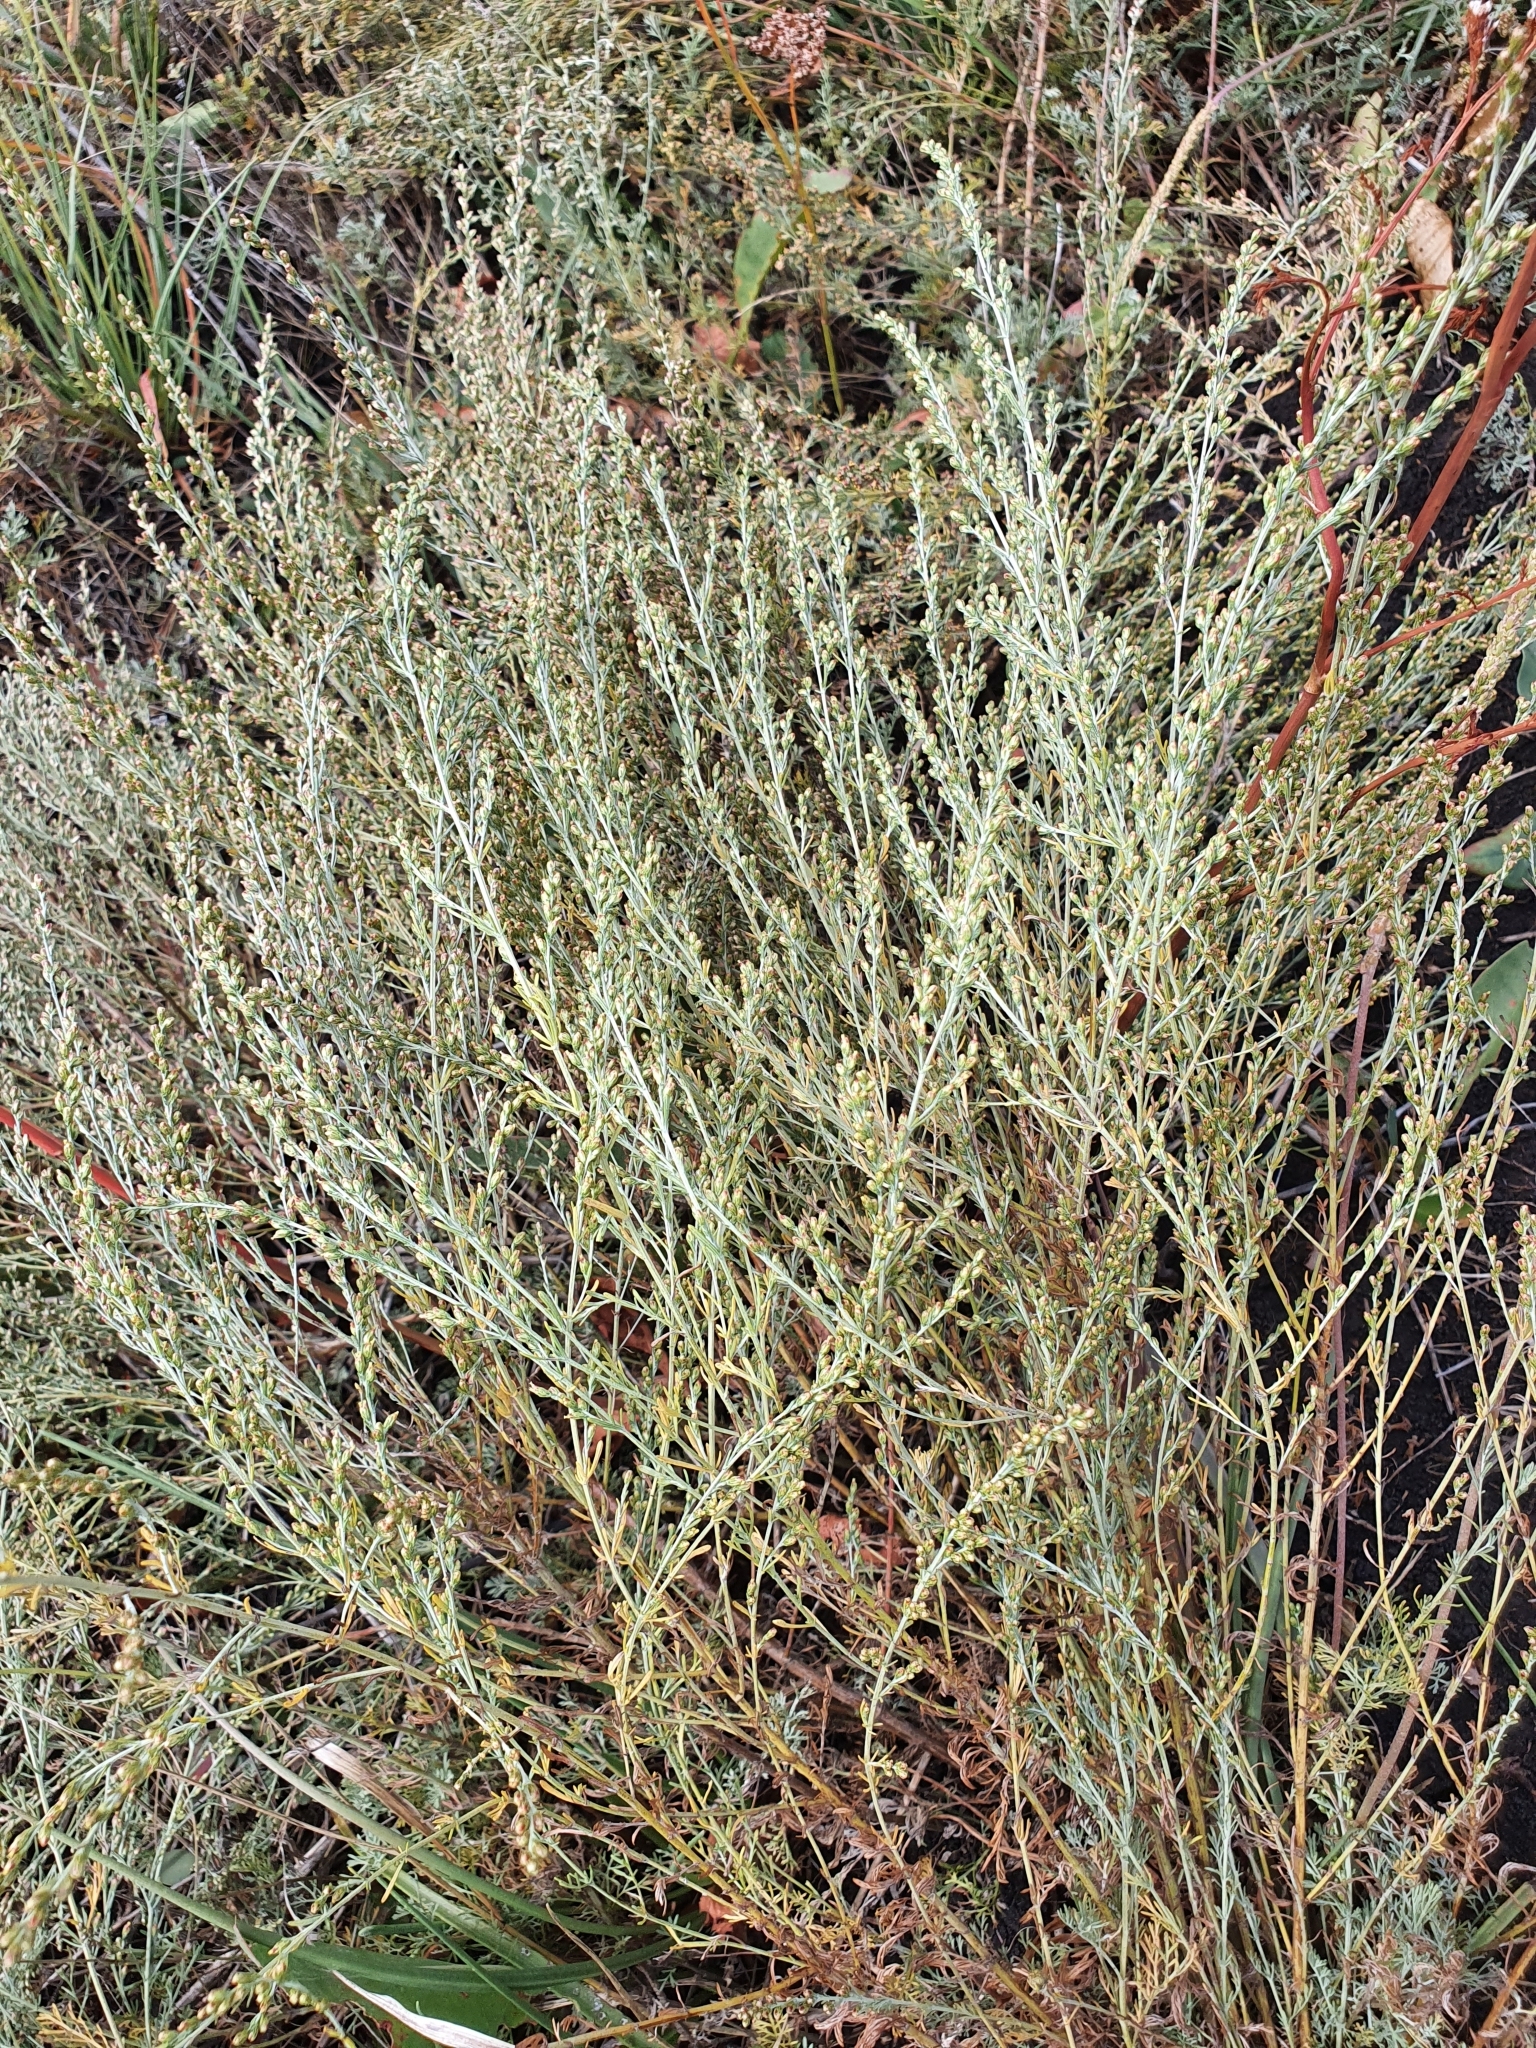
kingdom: Plantae
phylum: Tracheophyta
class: Magnoliopsida
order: Asterales
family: Asteraceae
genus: Artemisia
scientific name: Artemisia nitrosa
